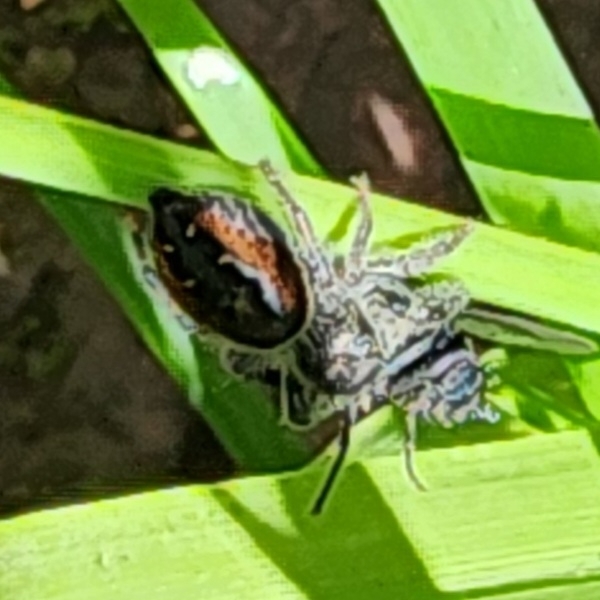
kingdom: Animalia
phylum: Arthropoda
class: Arachnida
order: Araneae
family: Salticidae
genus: Phidippus
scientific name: Phidippus johnsoni
